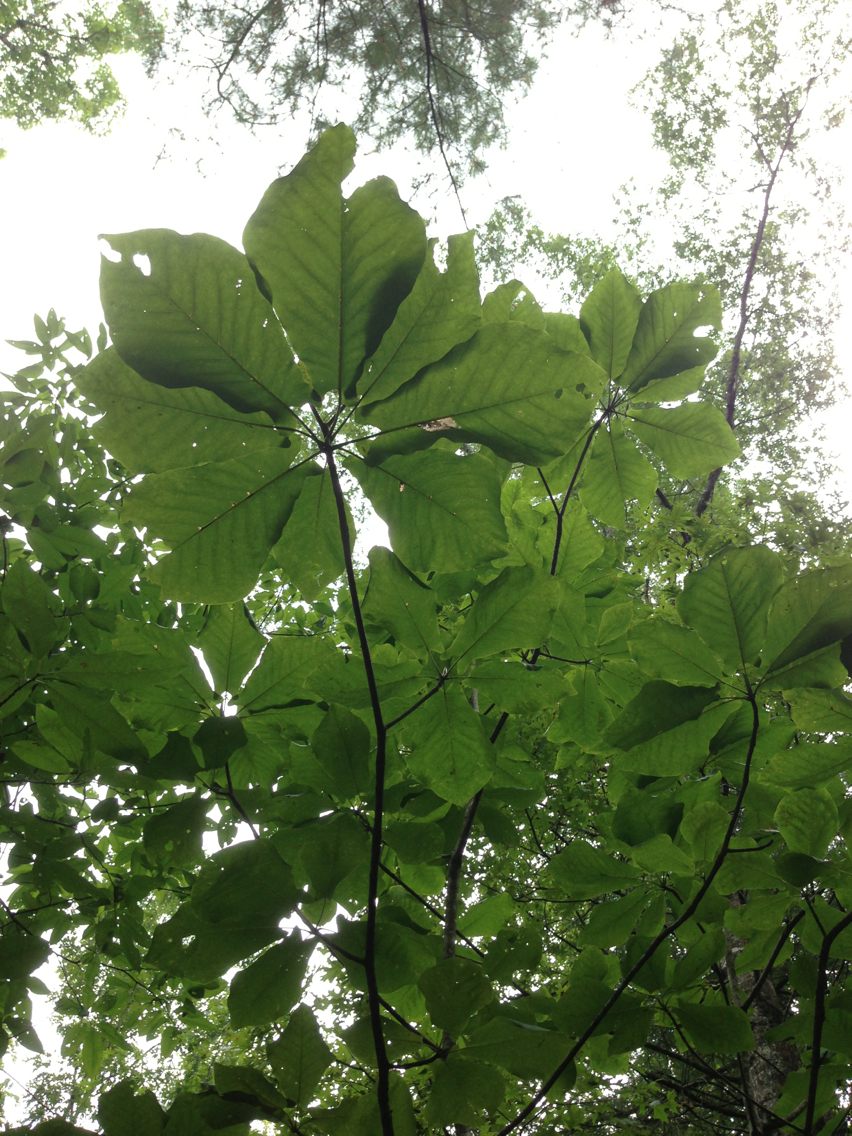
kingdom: Plantae
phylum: Tracheophyta
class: Magnoliopsida
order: Magnoliales
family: Magnoliaceae
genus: Magnolia
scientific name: Magnolia fraseri
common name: Fraser's magnolia
